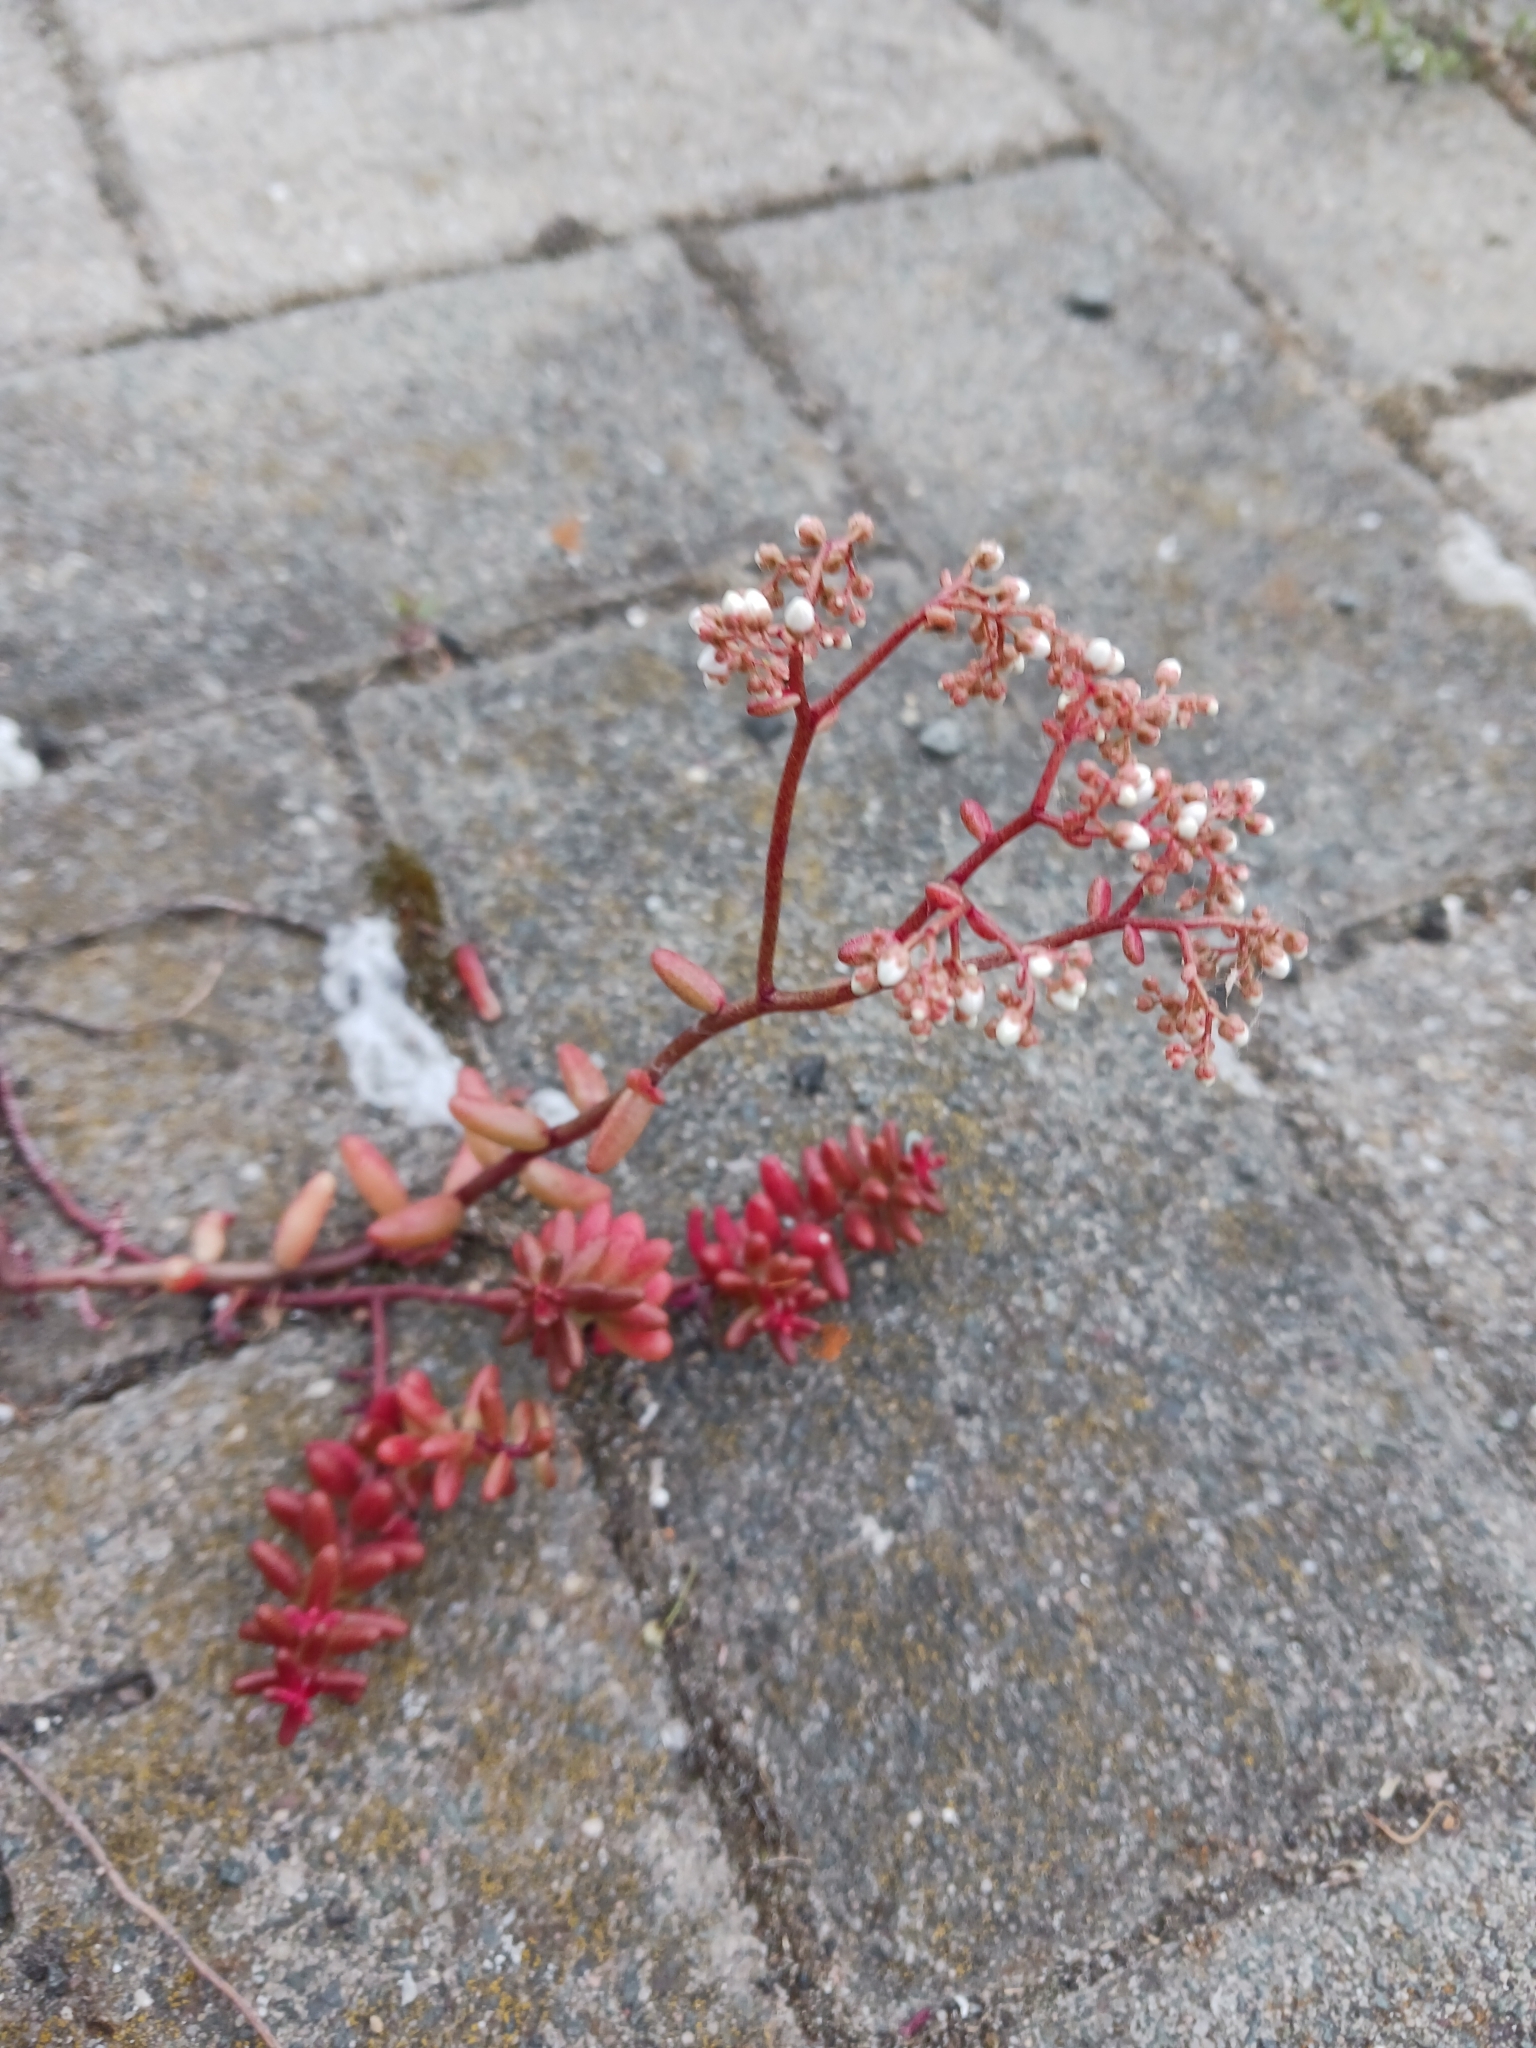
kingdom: Plantae
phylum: Tracheophyta
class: Magnoliopsida
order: Saxifragales
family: Crassulaceae
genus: Sedum
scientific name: Sedum album
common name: White stonecrop
